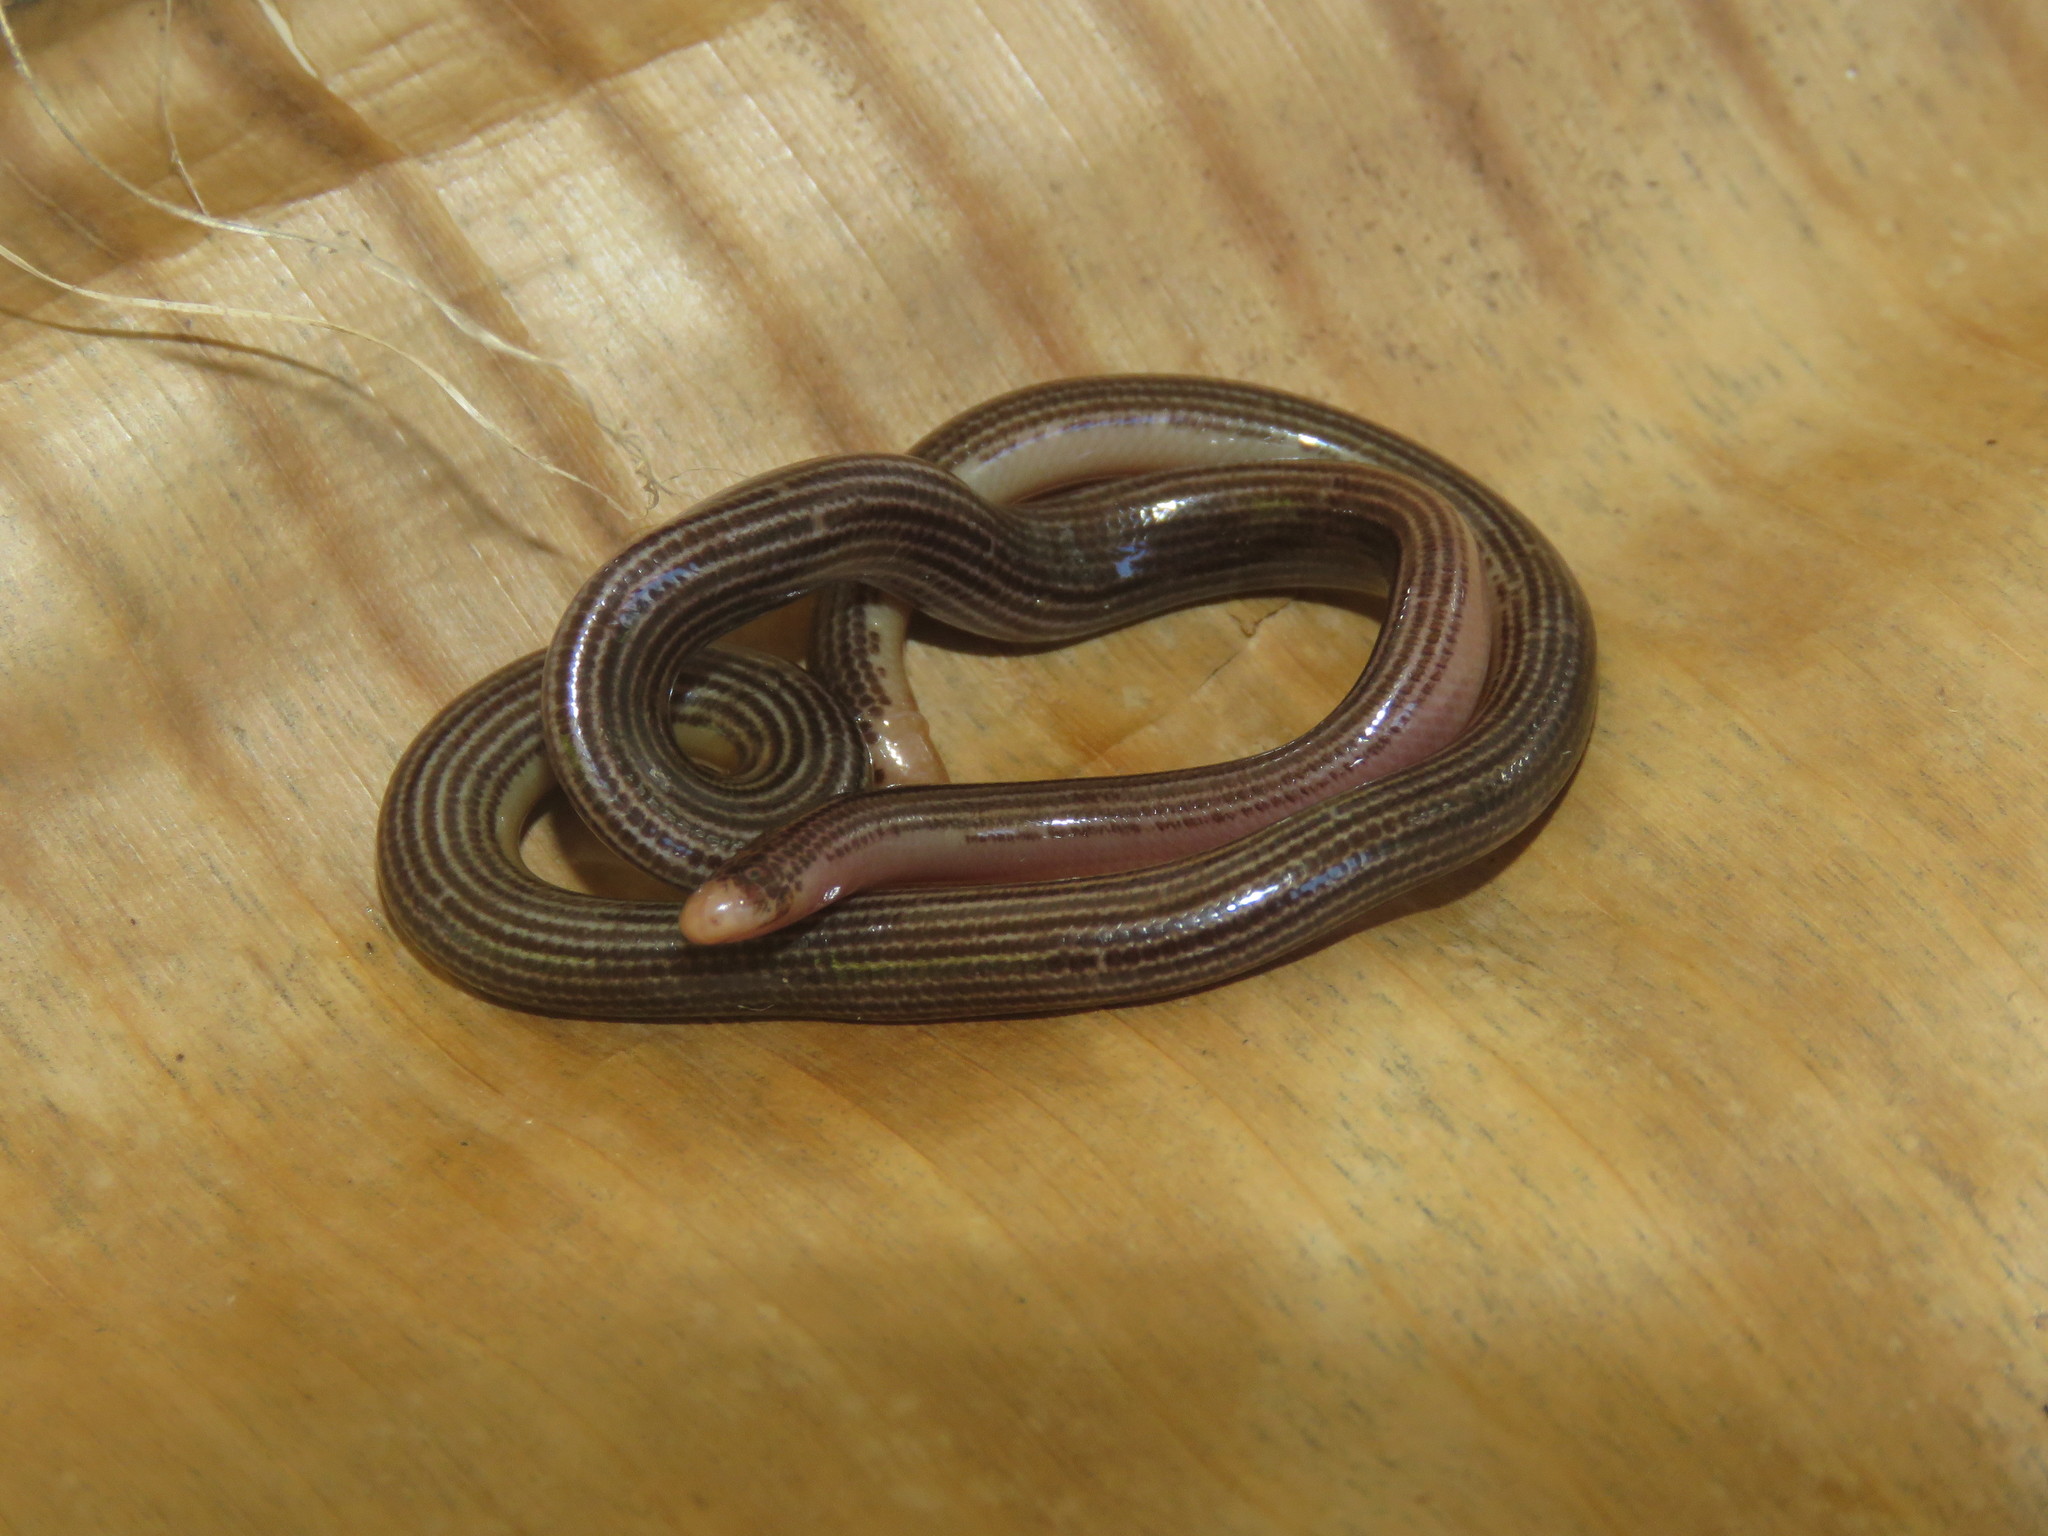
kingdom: Animalia
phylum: Chordata
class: Squamata
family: Typhlopidae
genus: Amerotyphlops
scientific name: Amerotyphlops trinitatus
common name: Trinidad worm snake
